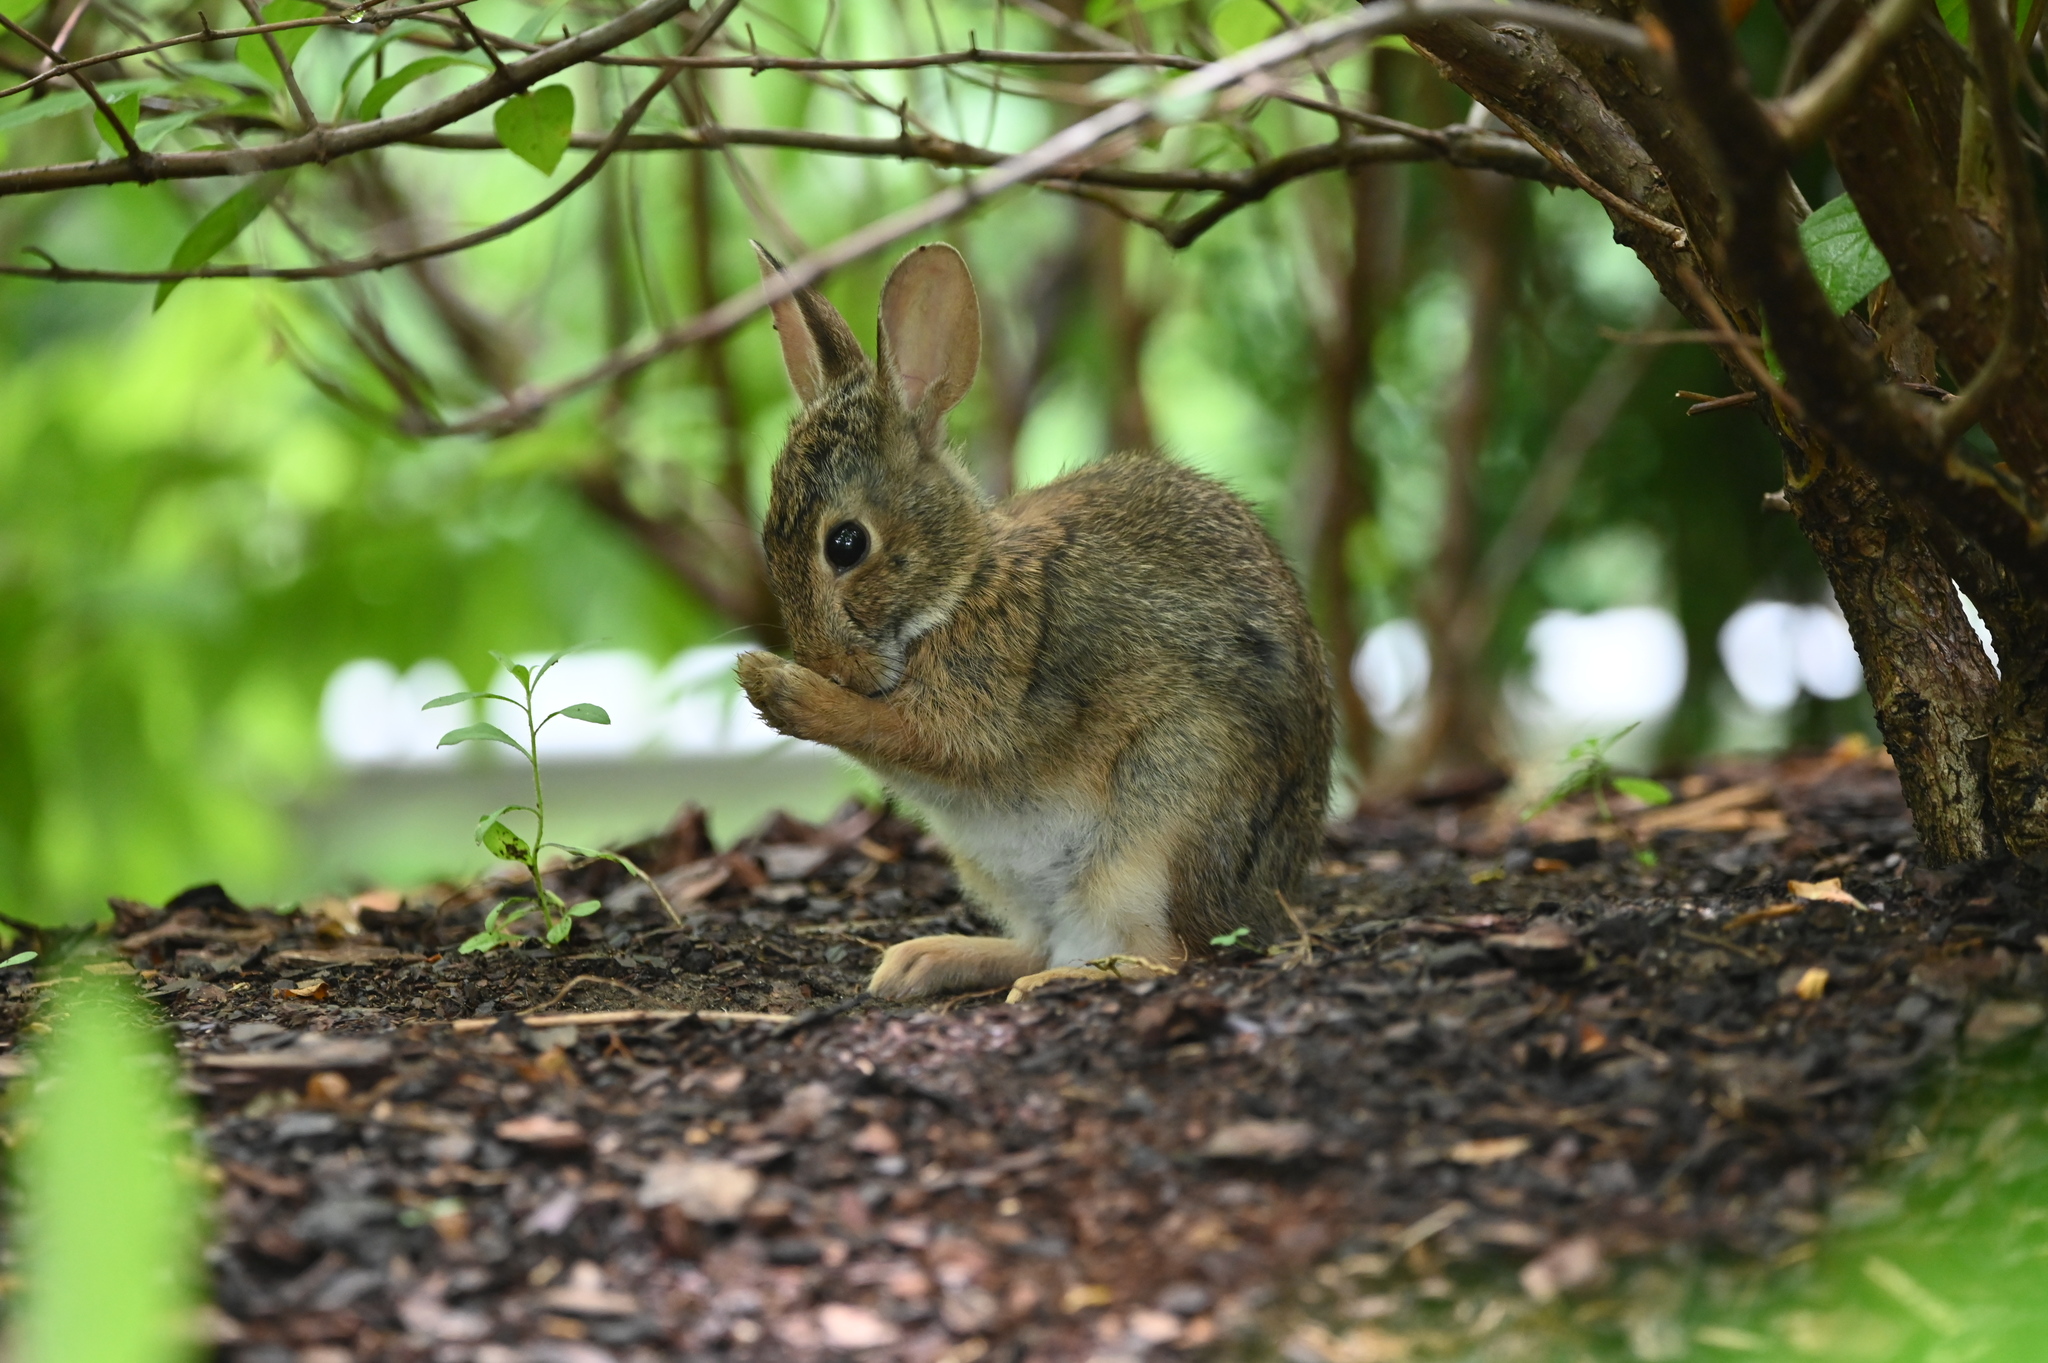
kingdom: Animalia
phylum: Chordata
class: Mammalia
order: Lagomorpha
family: Leporidae
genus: Sylvilagus
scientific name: Sylvilagus floridanus
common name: Eastern cottontail
